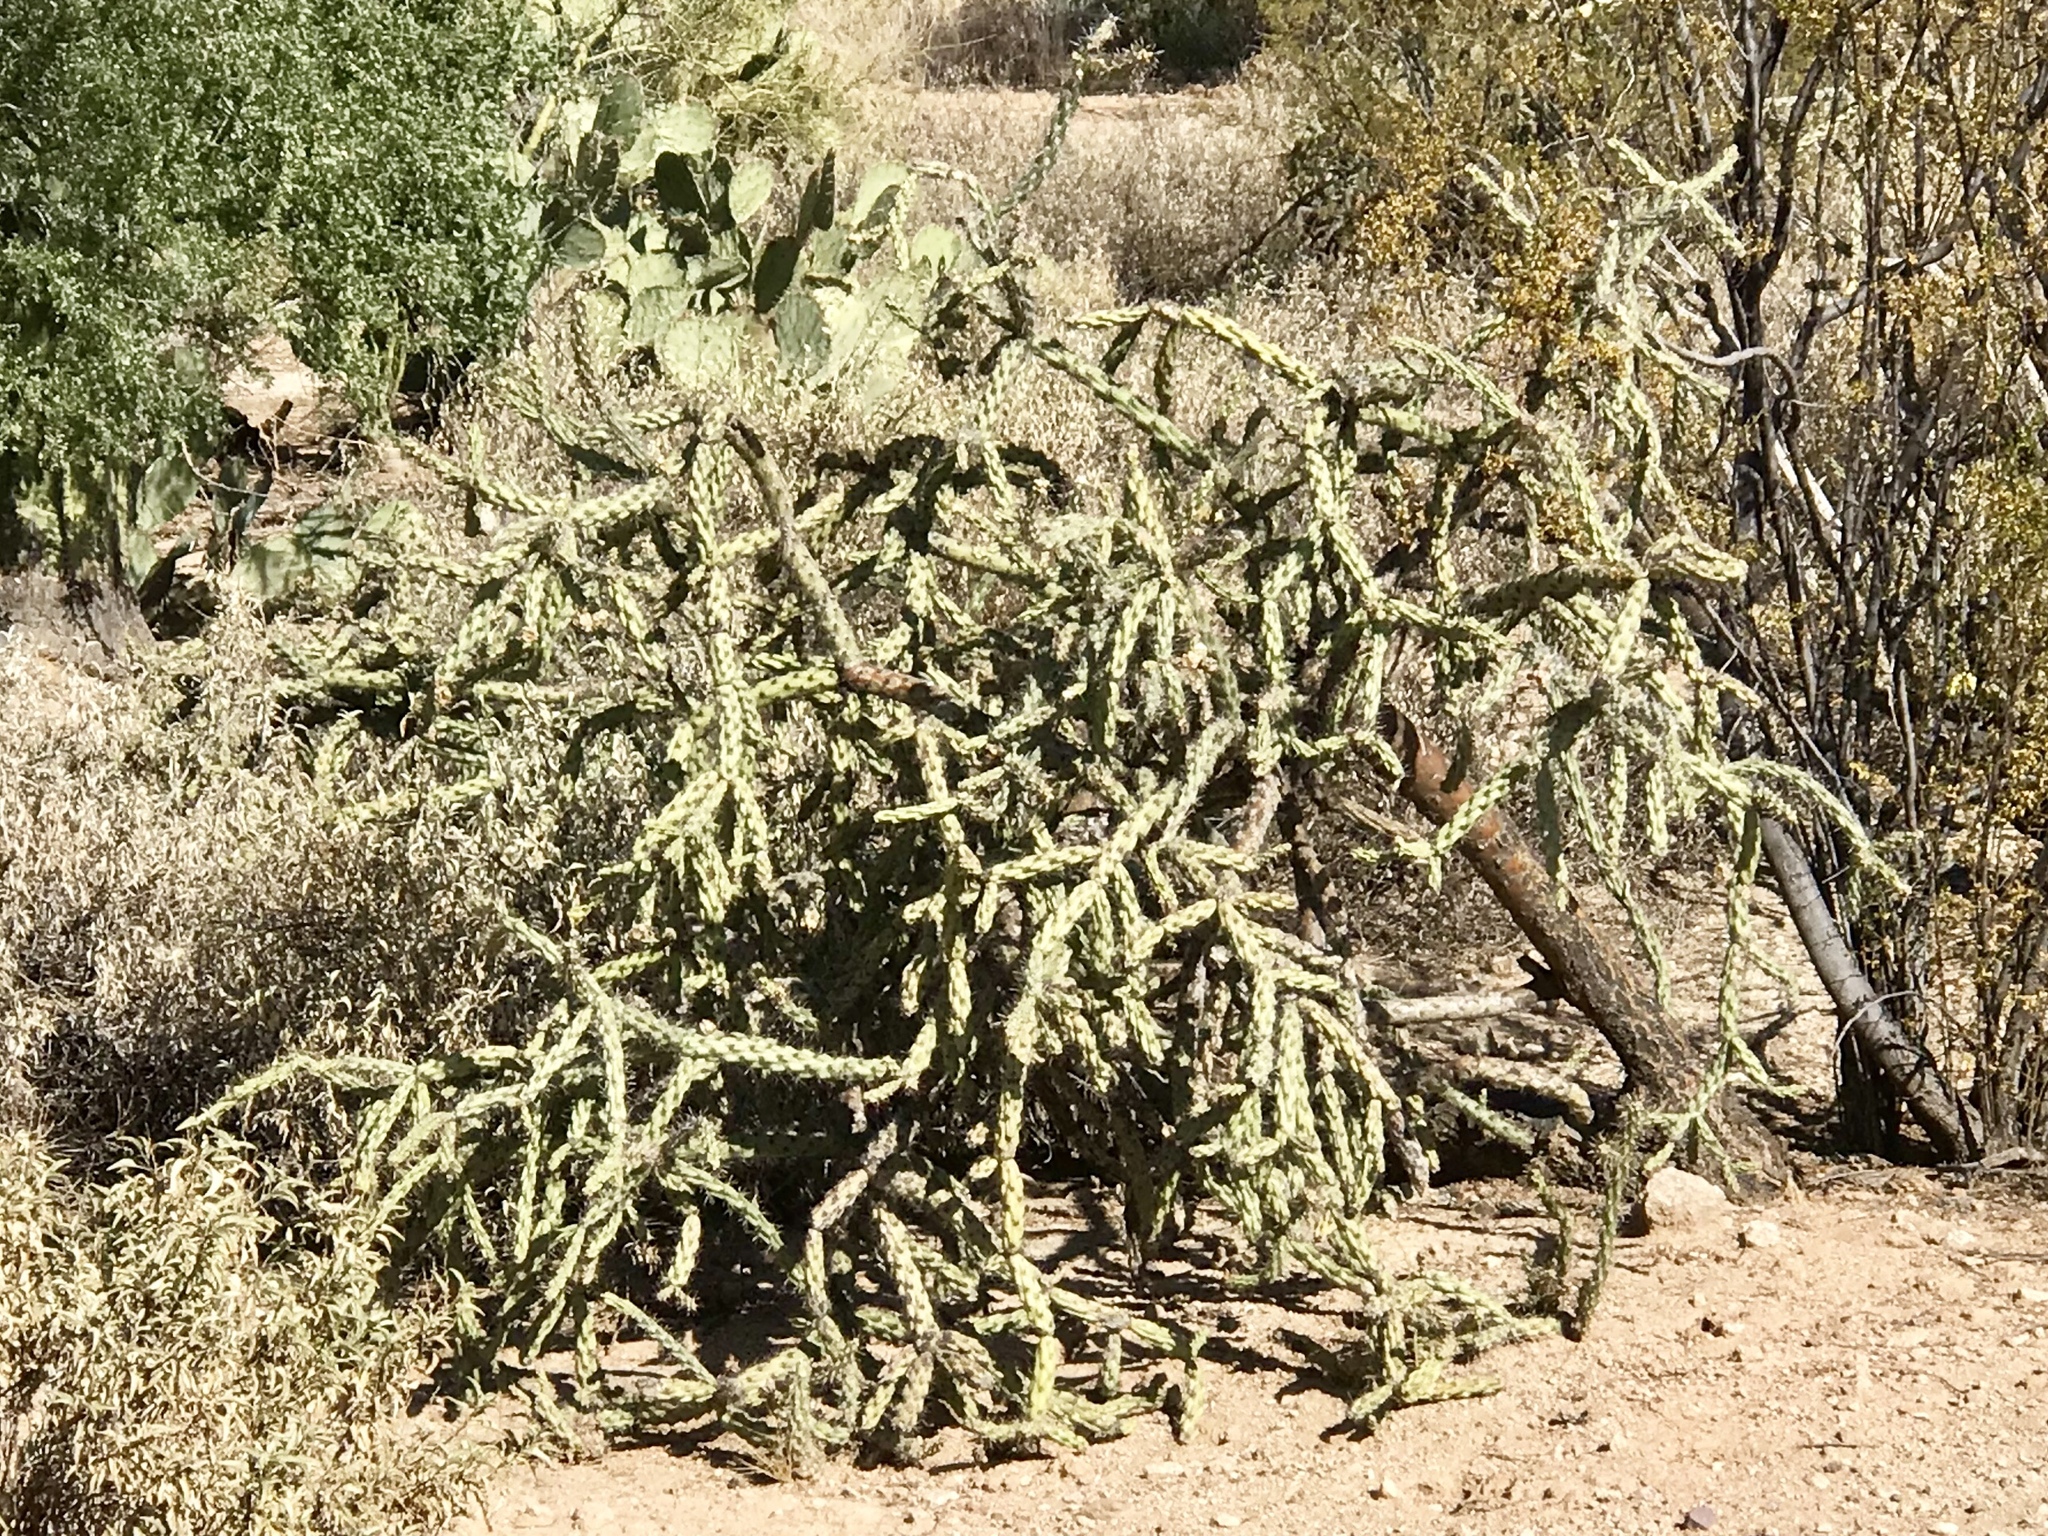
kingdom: Plantae
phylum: Tracheophyta
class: Magnoliopsida
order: Caryophyllales
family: Cactaceae
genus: Cylindropuntia
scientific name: Cylindropuntia acanthocarpa
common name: Buckhorn cholla
